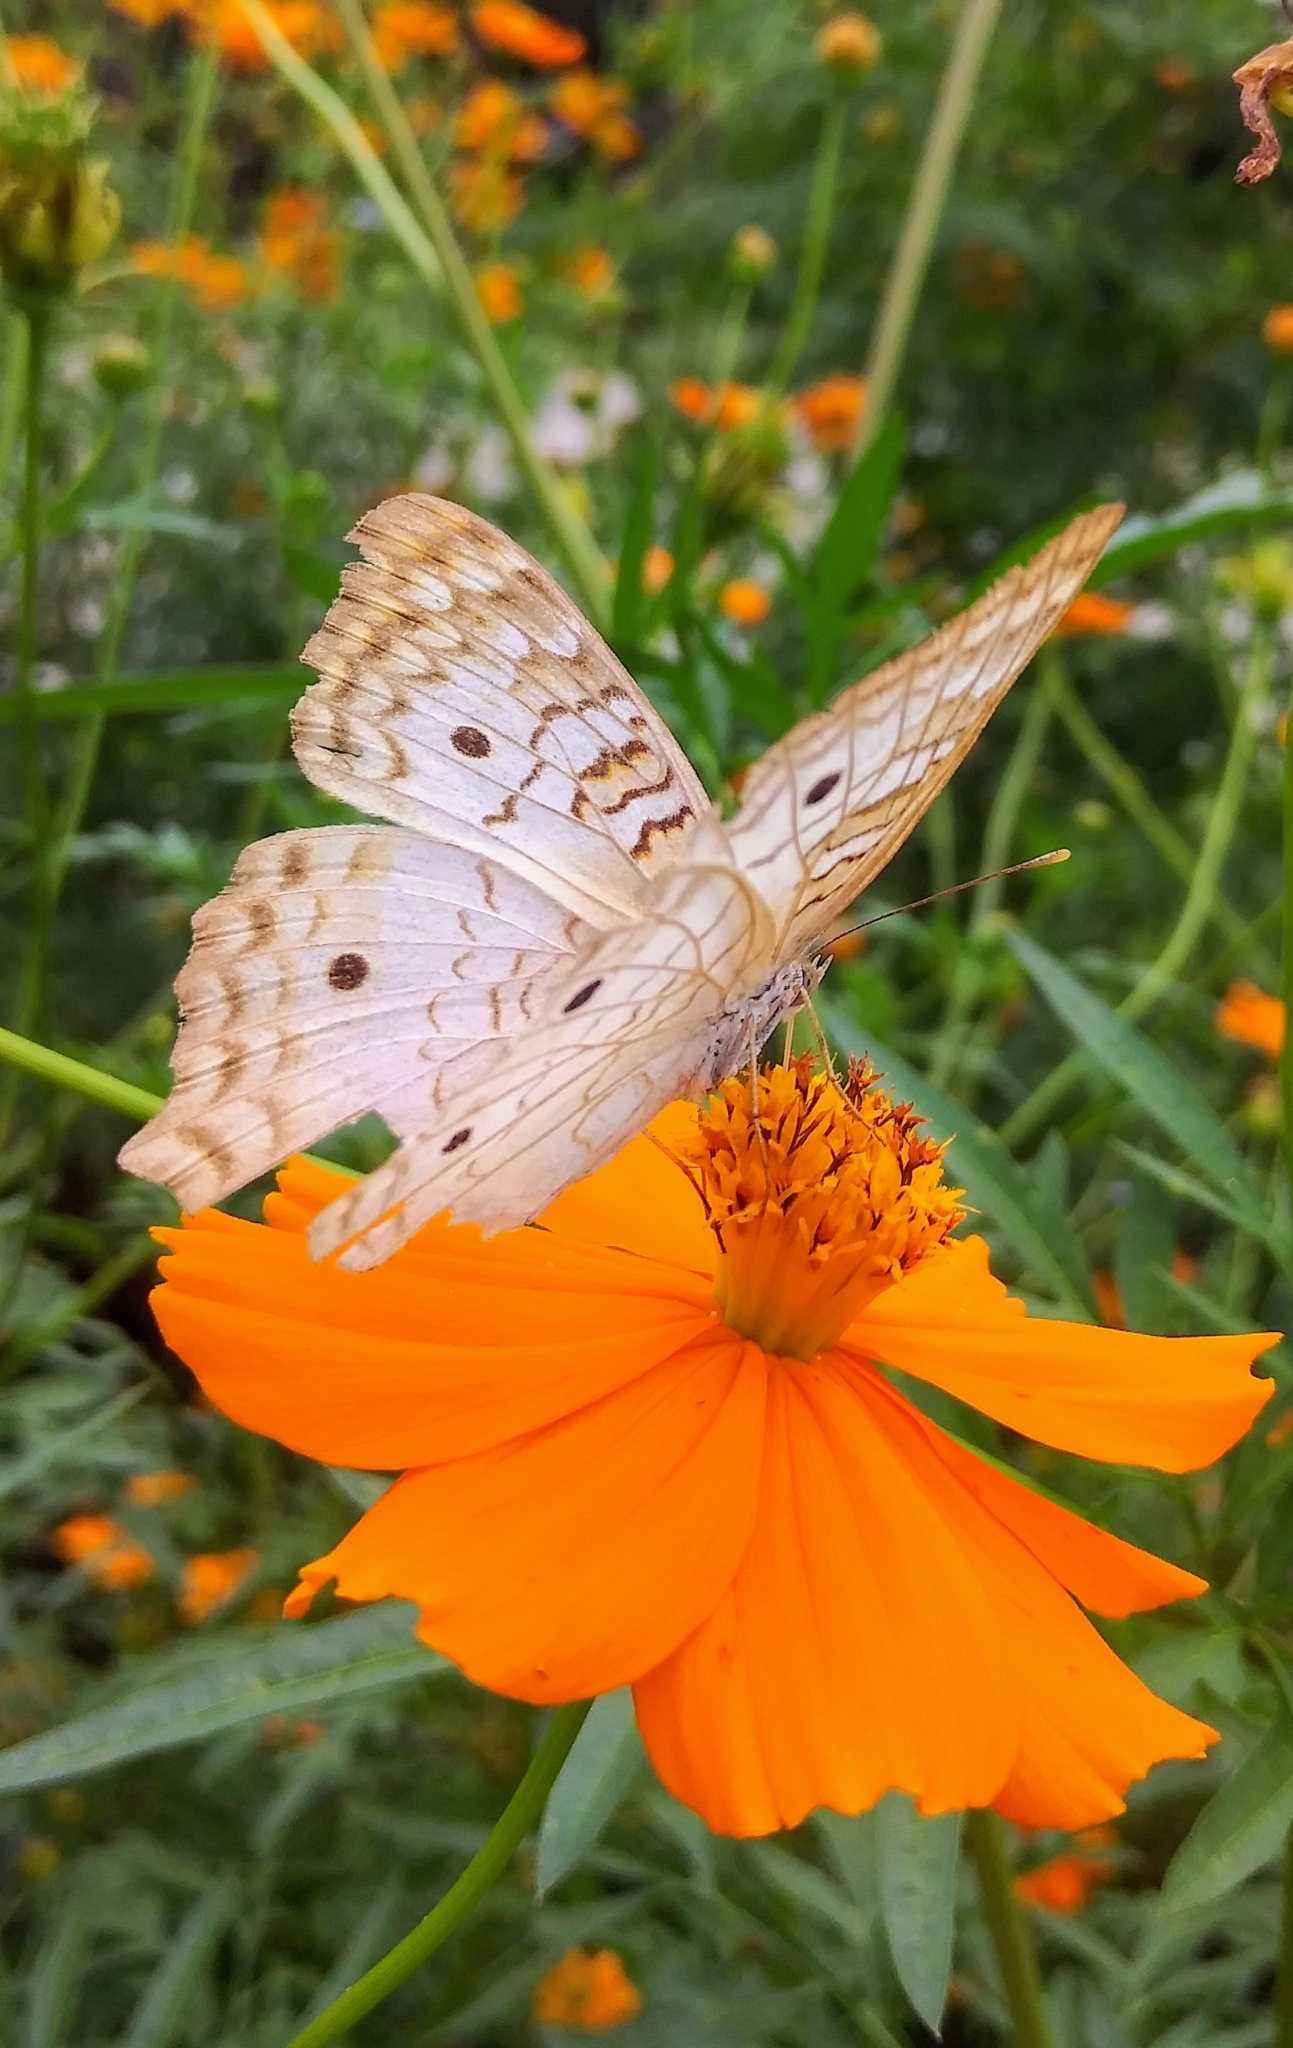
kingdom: Animalia
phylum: Arthropoda
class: Insecta
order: Lepidoptera
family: Nymphalidae
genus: Anartia
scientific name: Anartia jatrophae
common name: White peacock
